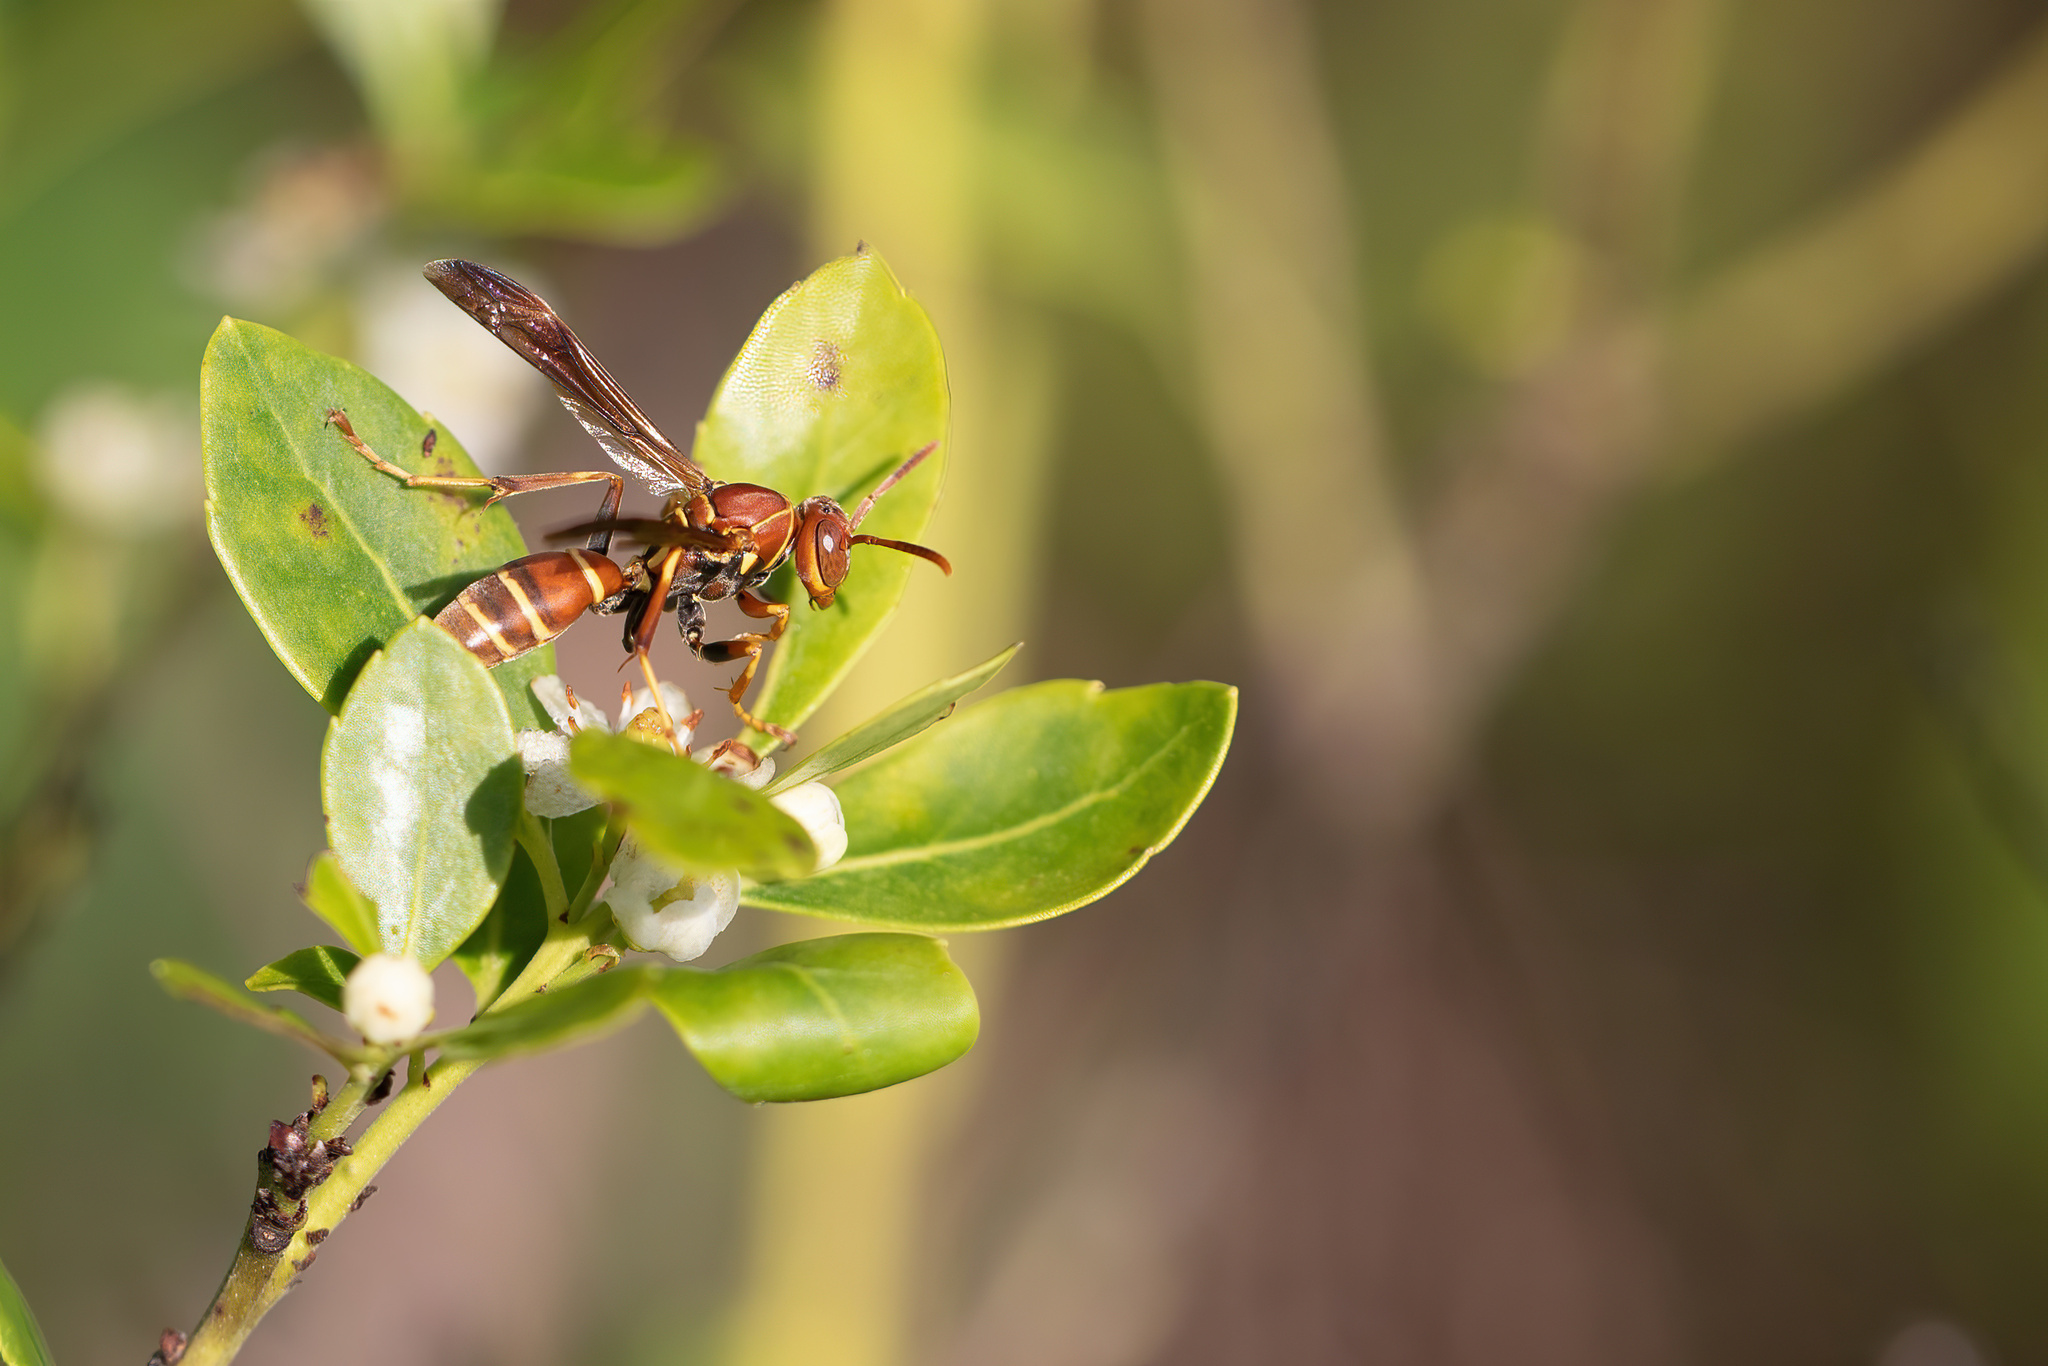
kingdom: Animalia
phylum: Arthropoda
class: Insecta
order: Hymenoptera
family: Eumenidae
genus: Polistes
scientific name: Polistes dorsalis
